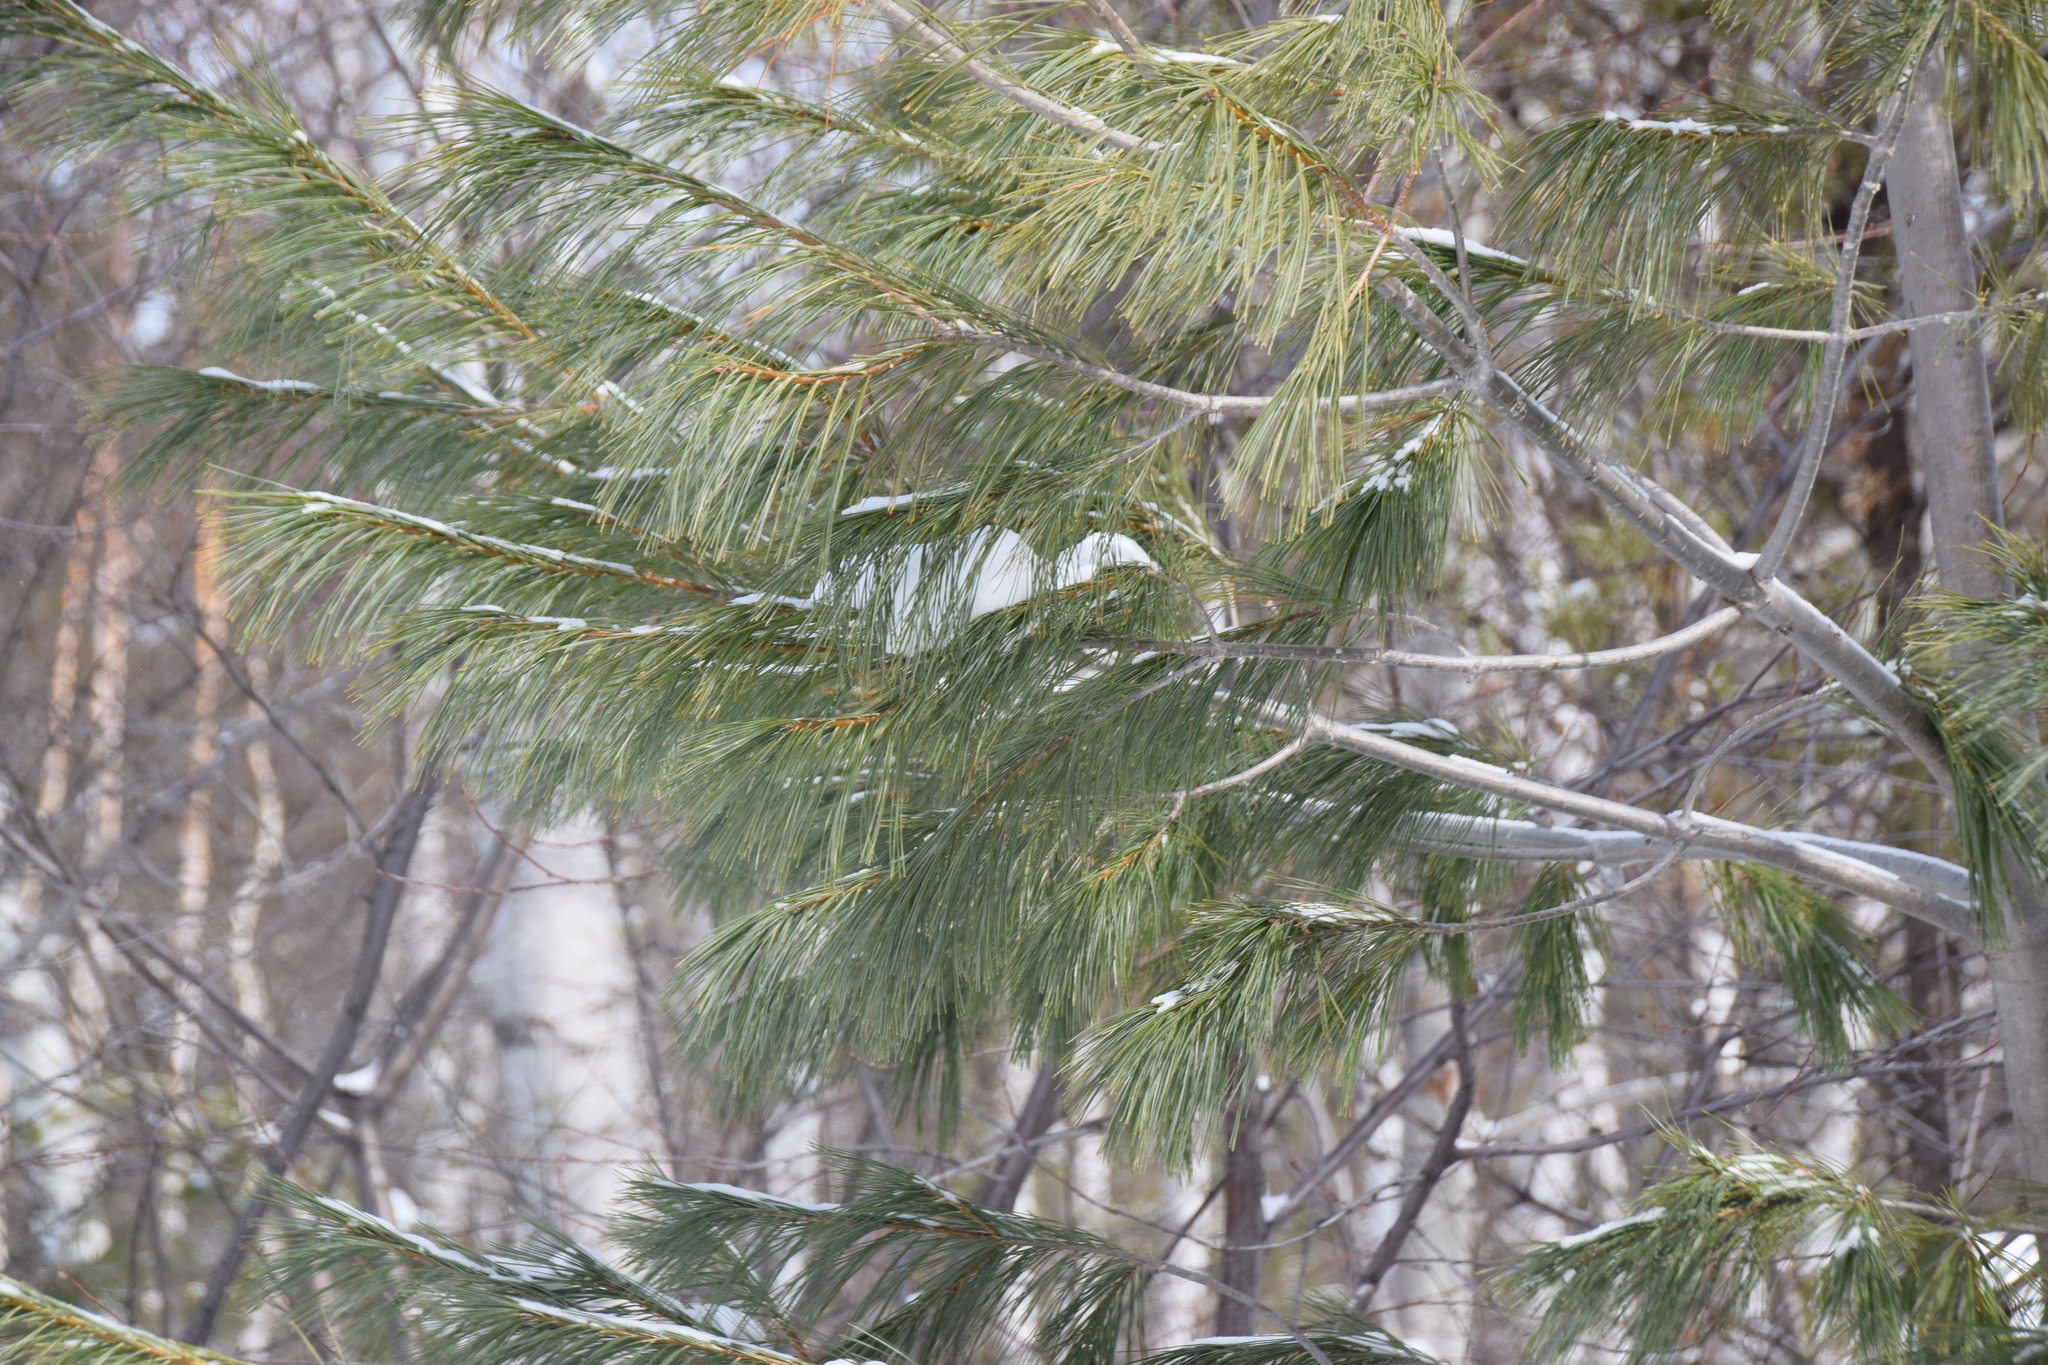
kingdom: Plantae
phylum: Tracheophyta
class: Pinopsida
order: Pinales
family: Pinaceae
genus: Pinus
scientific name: Pinus strobus
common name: Weymouth pine
